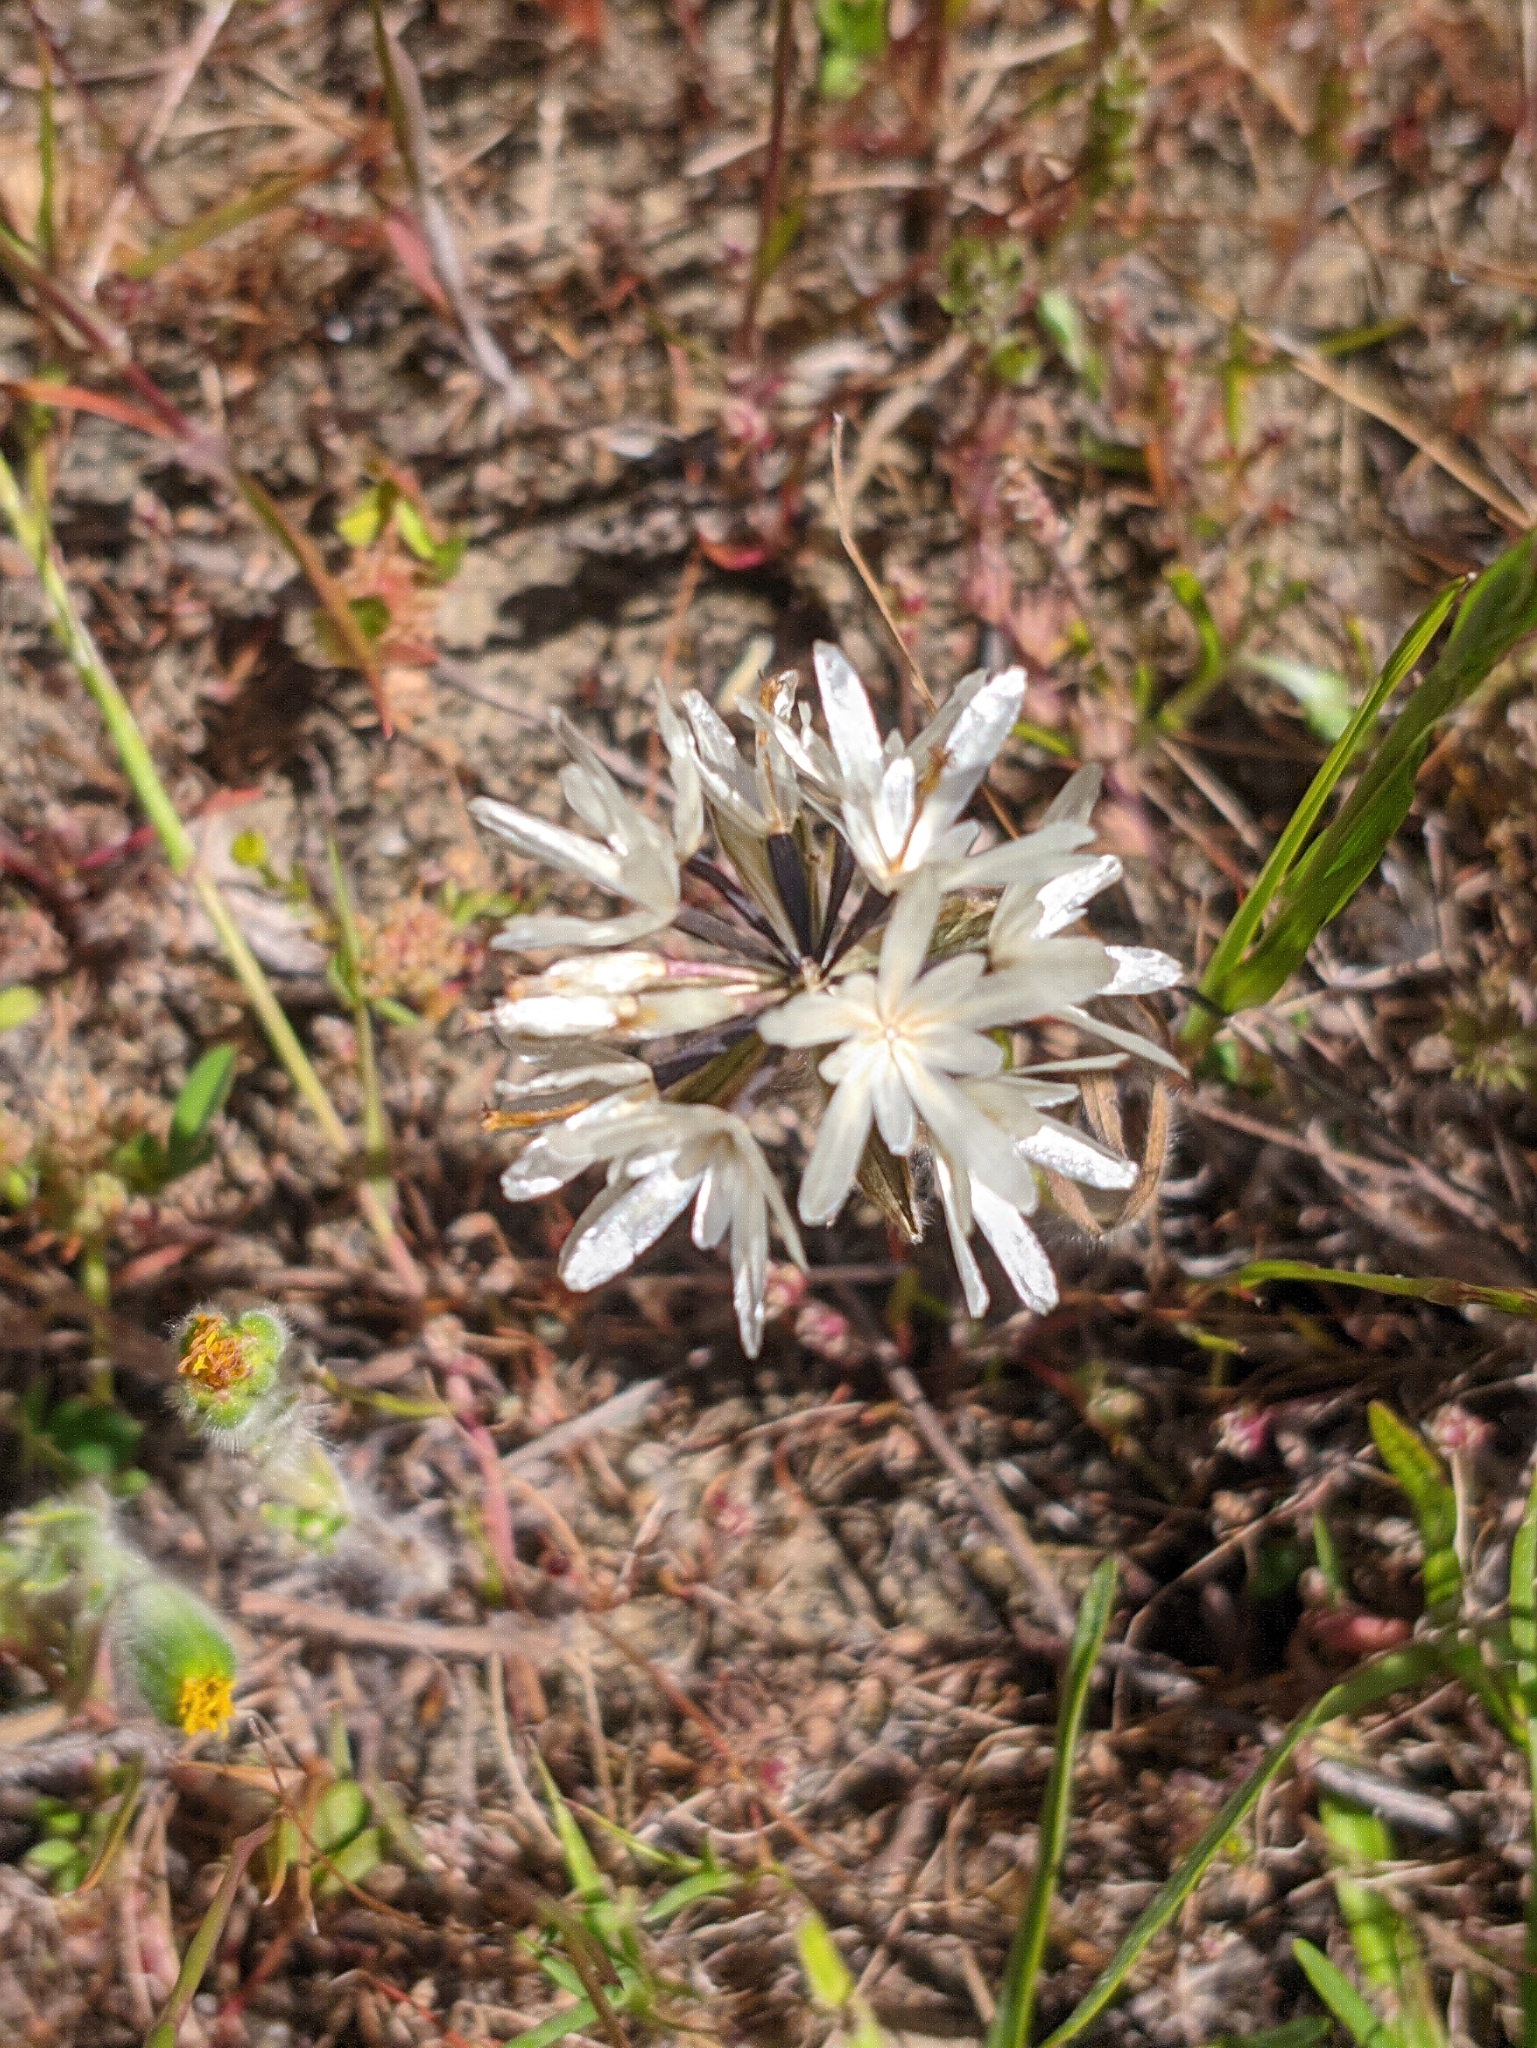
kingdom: Plantae
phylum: Tracheophyta
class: Magnoliopsida
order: Asterales
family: Asteraceae
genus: Achyrachaena
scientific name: Achyrachaena mollis
